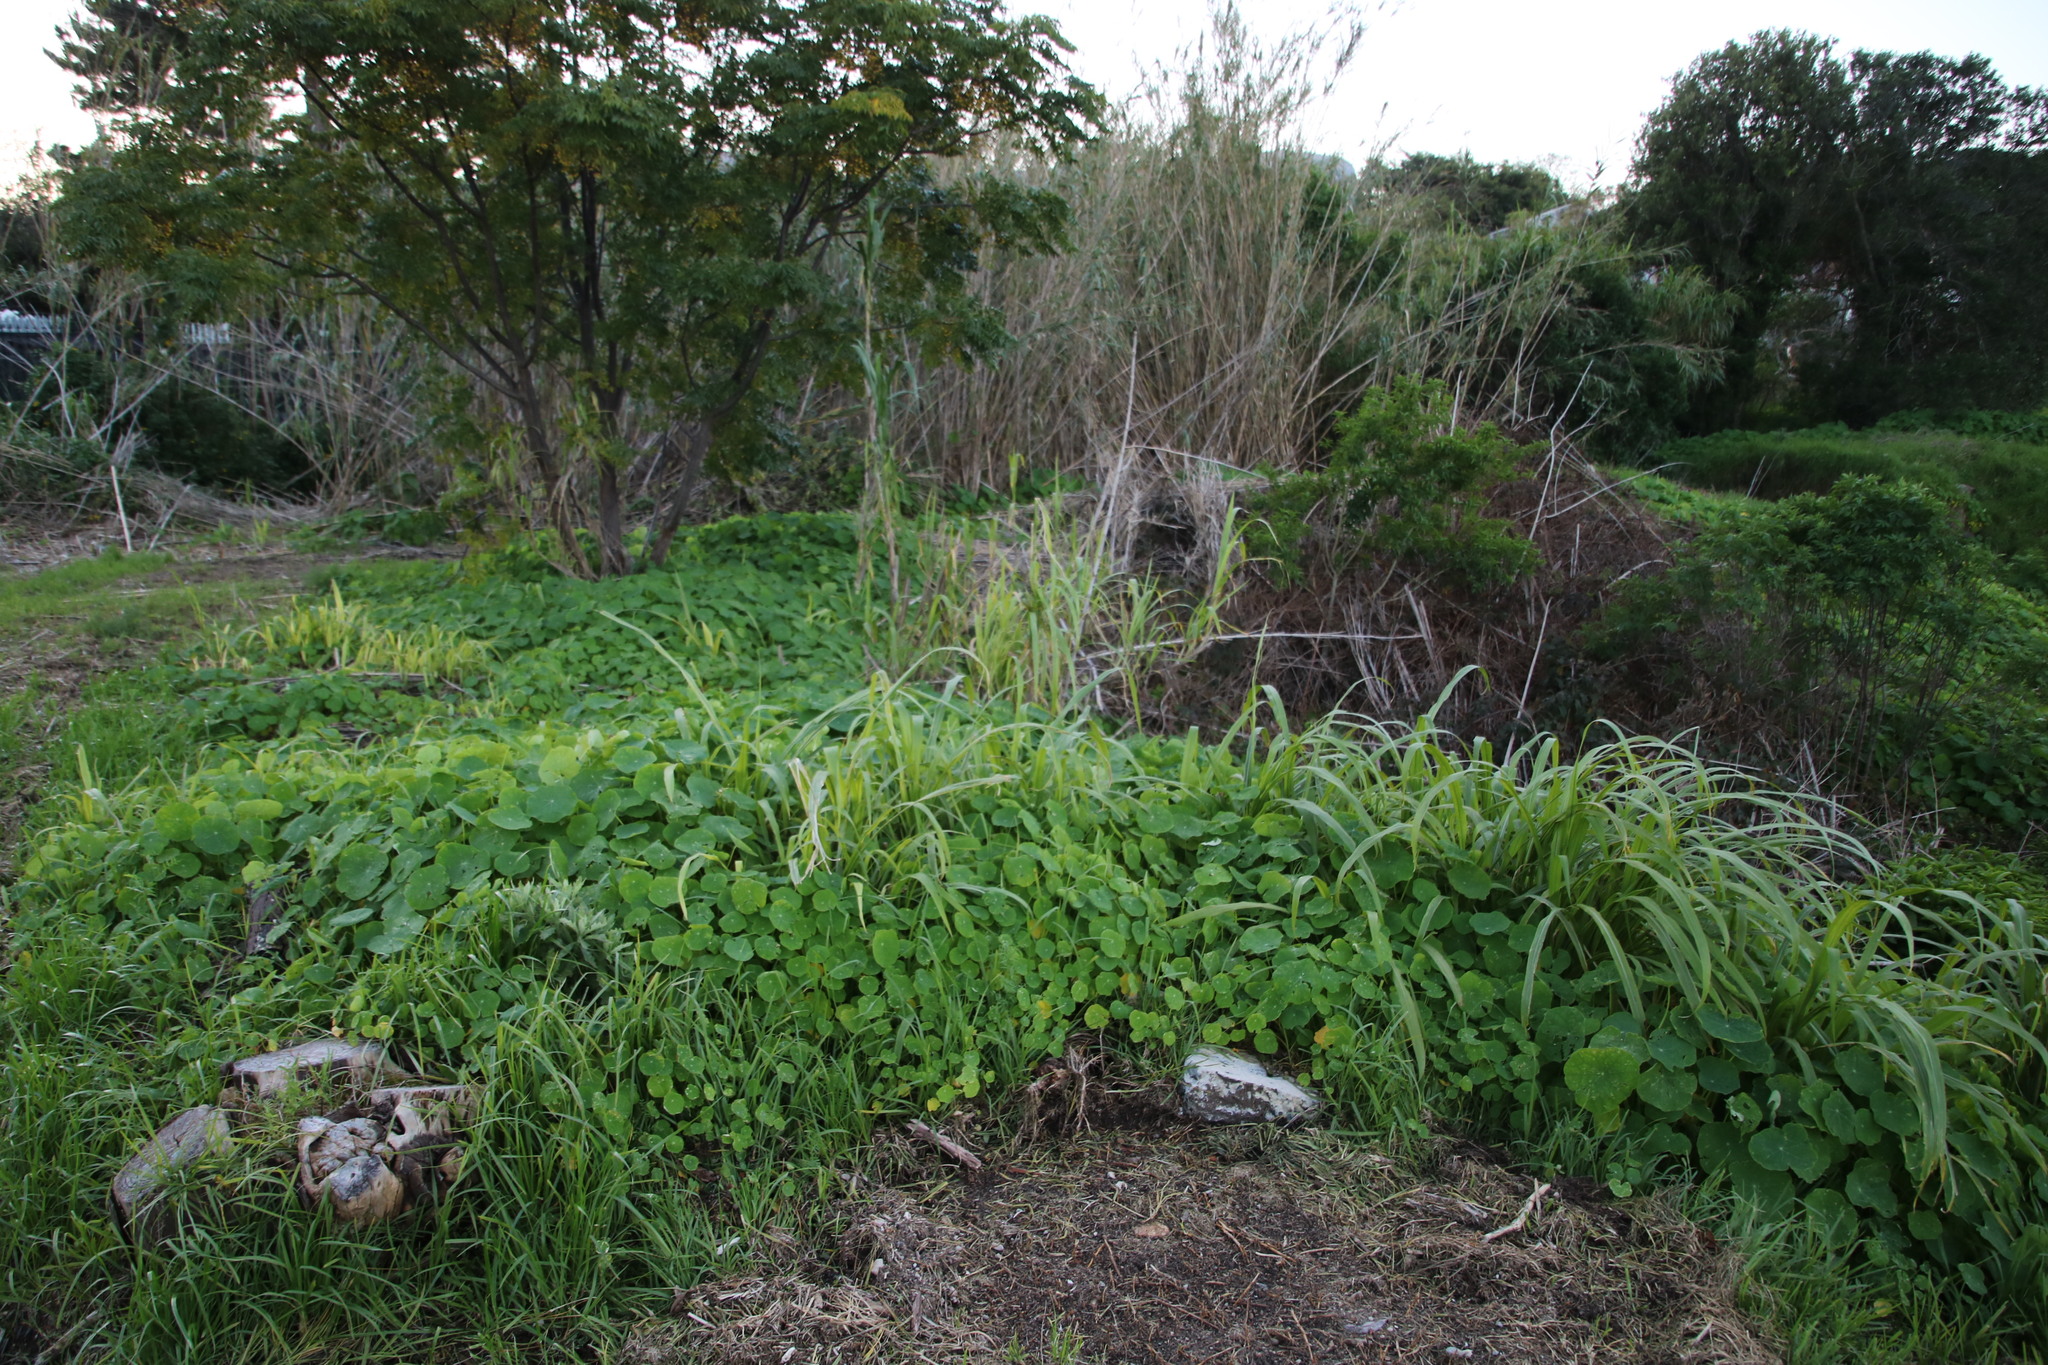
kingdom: Plantae
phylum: Tracheophyta
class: Magnoliopsida
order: Brassicales
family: Tropaeolaceae
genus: Tropaeolum
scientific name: Tropaeolum majus
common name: Nasturtium
